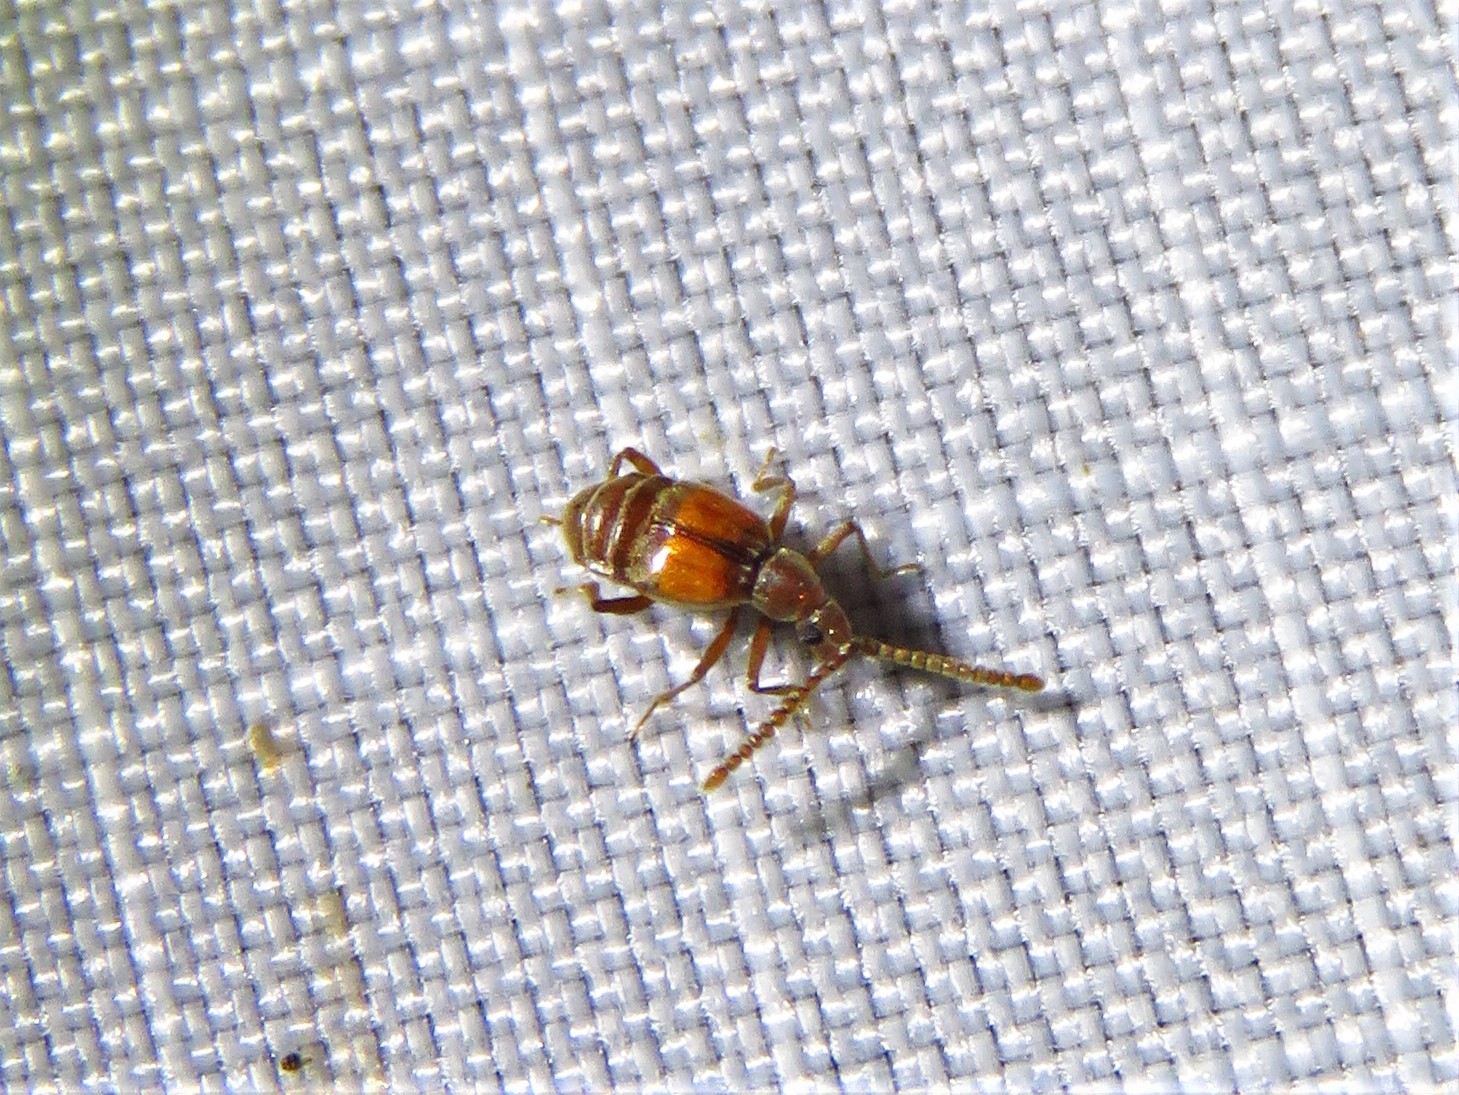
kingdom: Animalia
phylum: Arthropoda
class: Insecta
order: Coleoptera
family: Staphylinidae
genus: Atinus
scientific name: Atinus monilicornis
